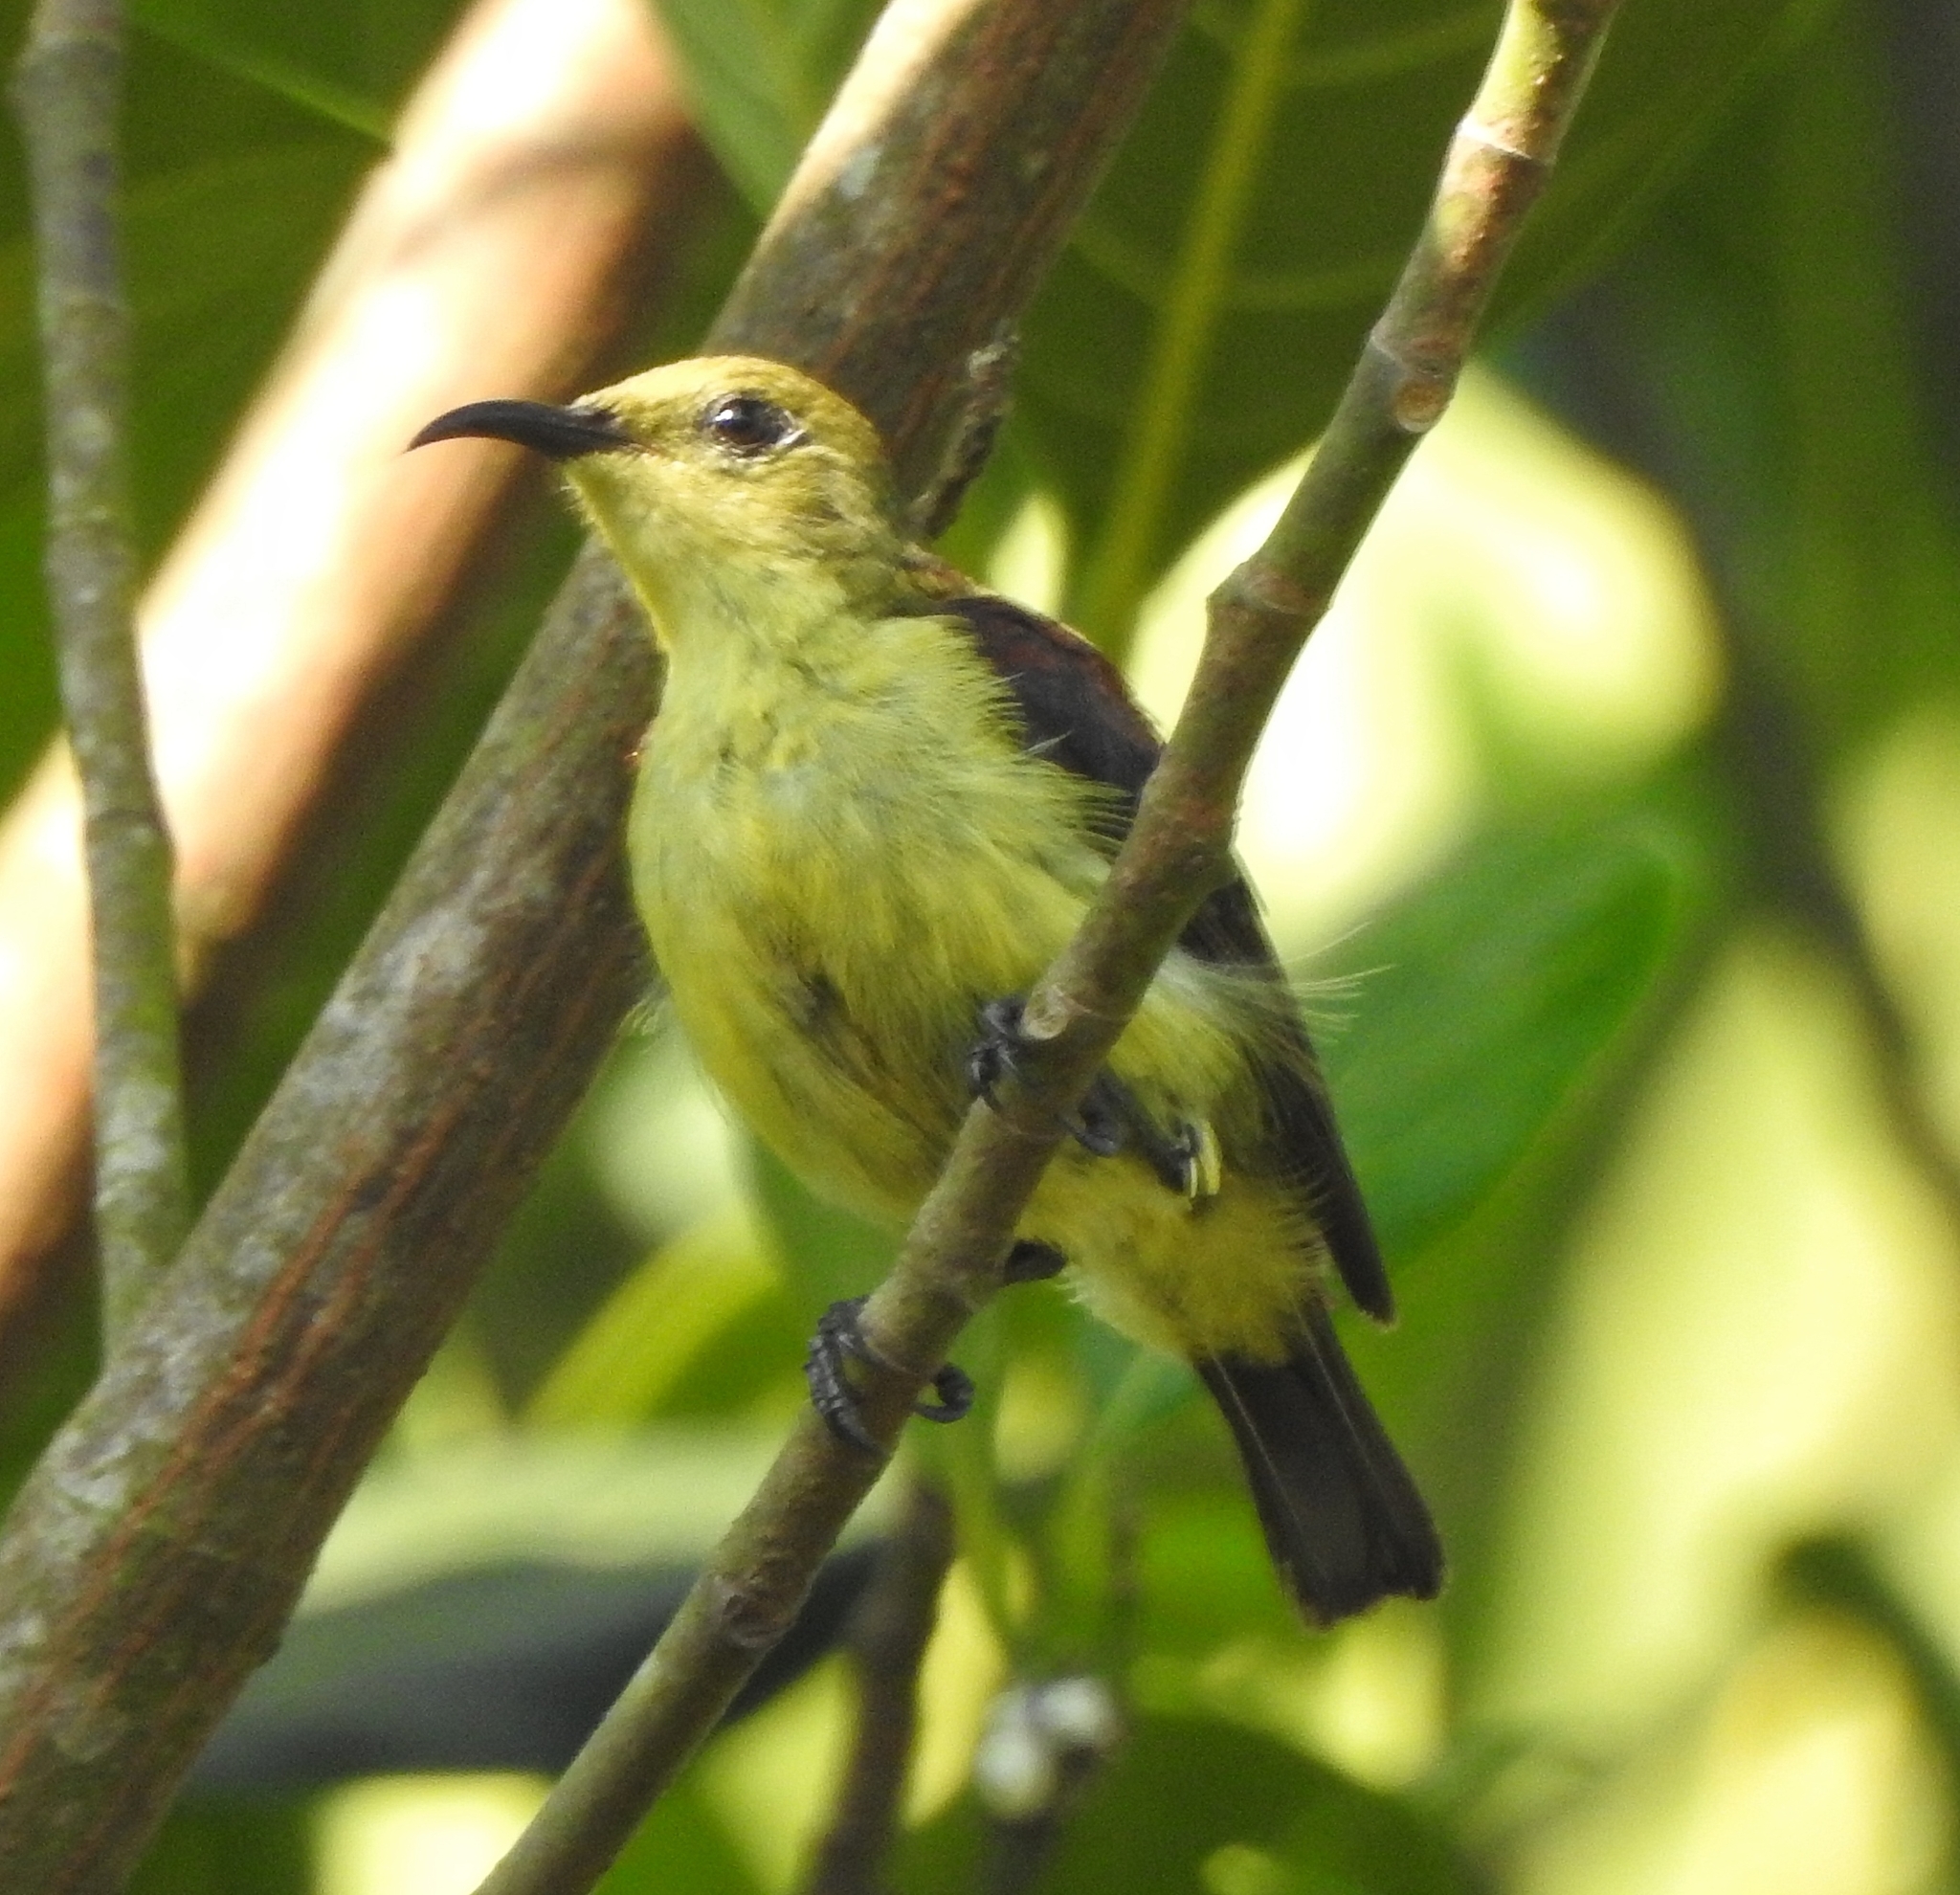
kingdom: Animalia
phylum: Chordata
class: Aves
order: Passeriformes
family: Nectariniidae
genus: Leptocoma
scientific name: Leptocoma minima
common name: Crimson-backed sunbird
